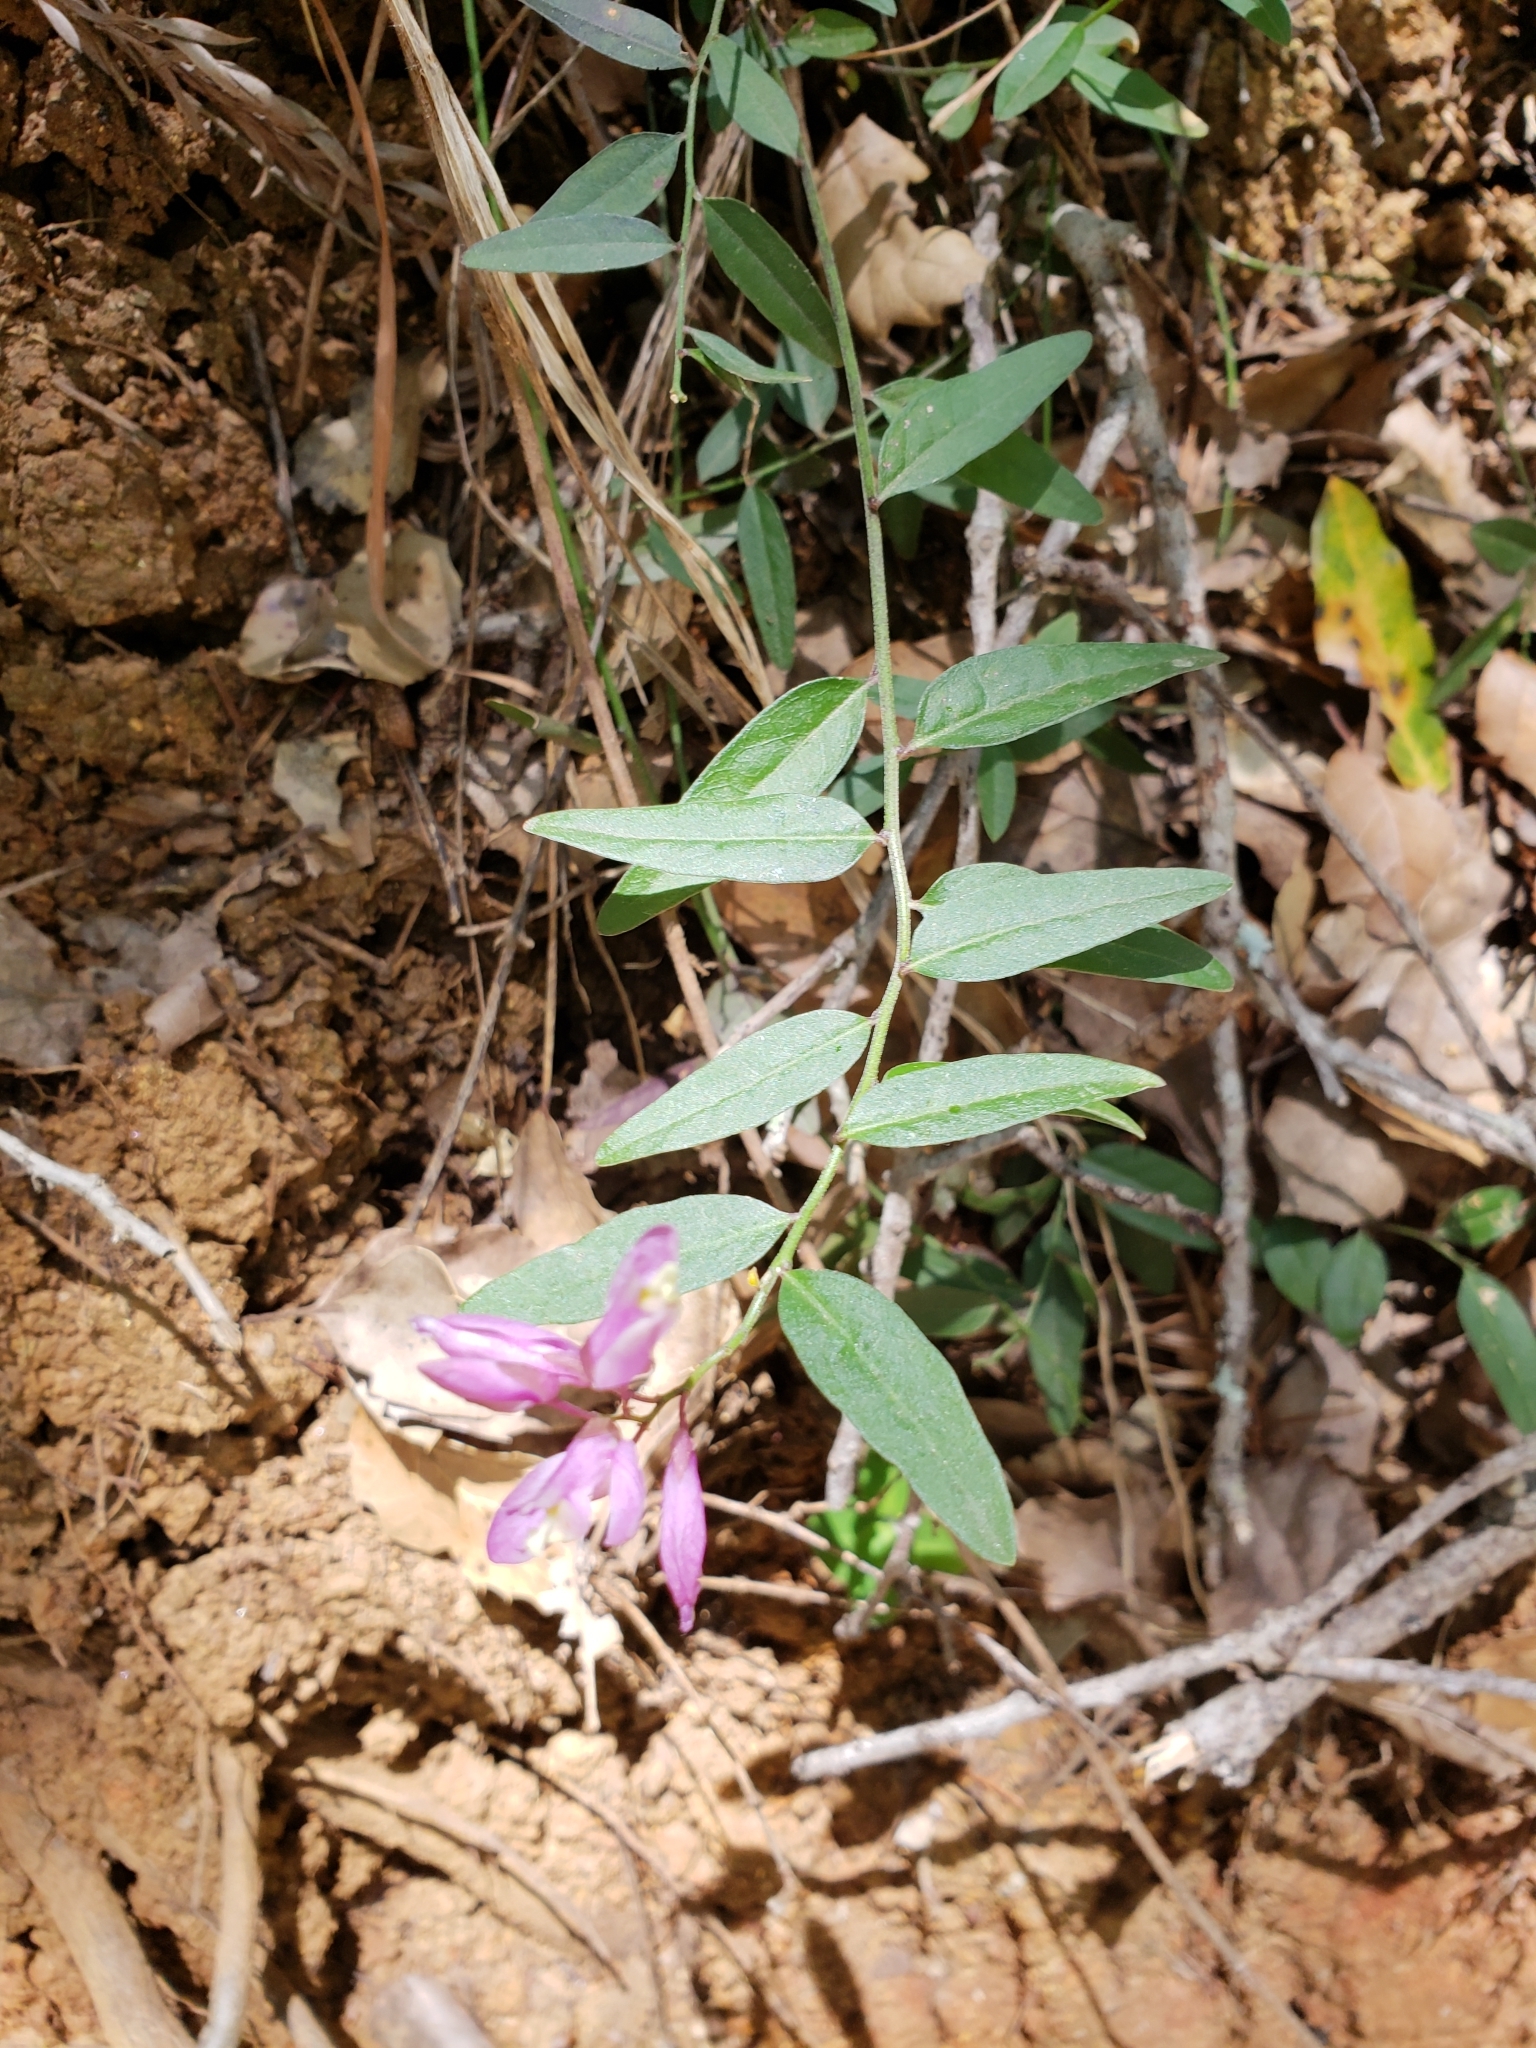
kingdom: Plantae
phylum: Tracheophyta
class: Magnoliopsida
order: Fabales
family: Polygalaceae
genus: Rhinotropis
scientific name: Rhinotropis californica
